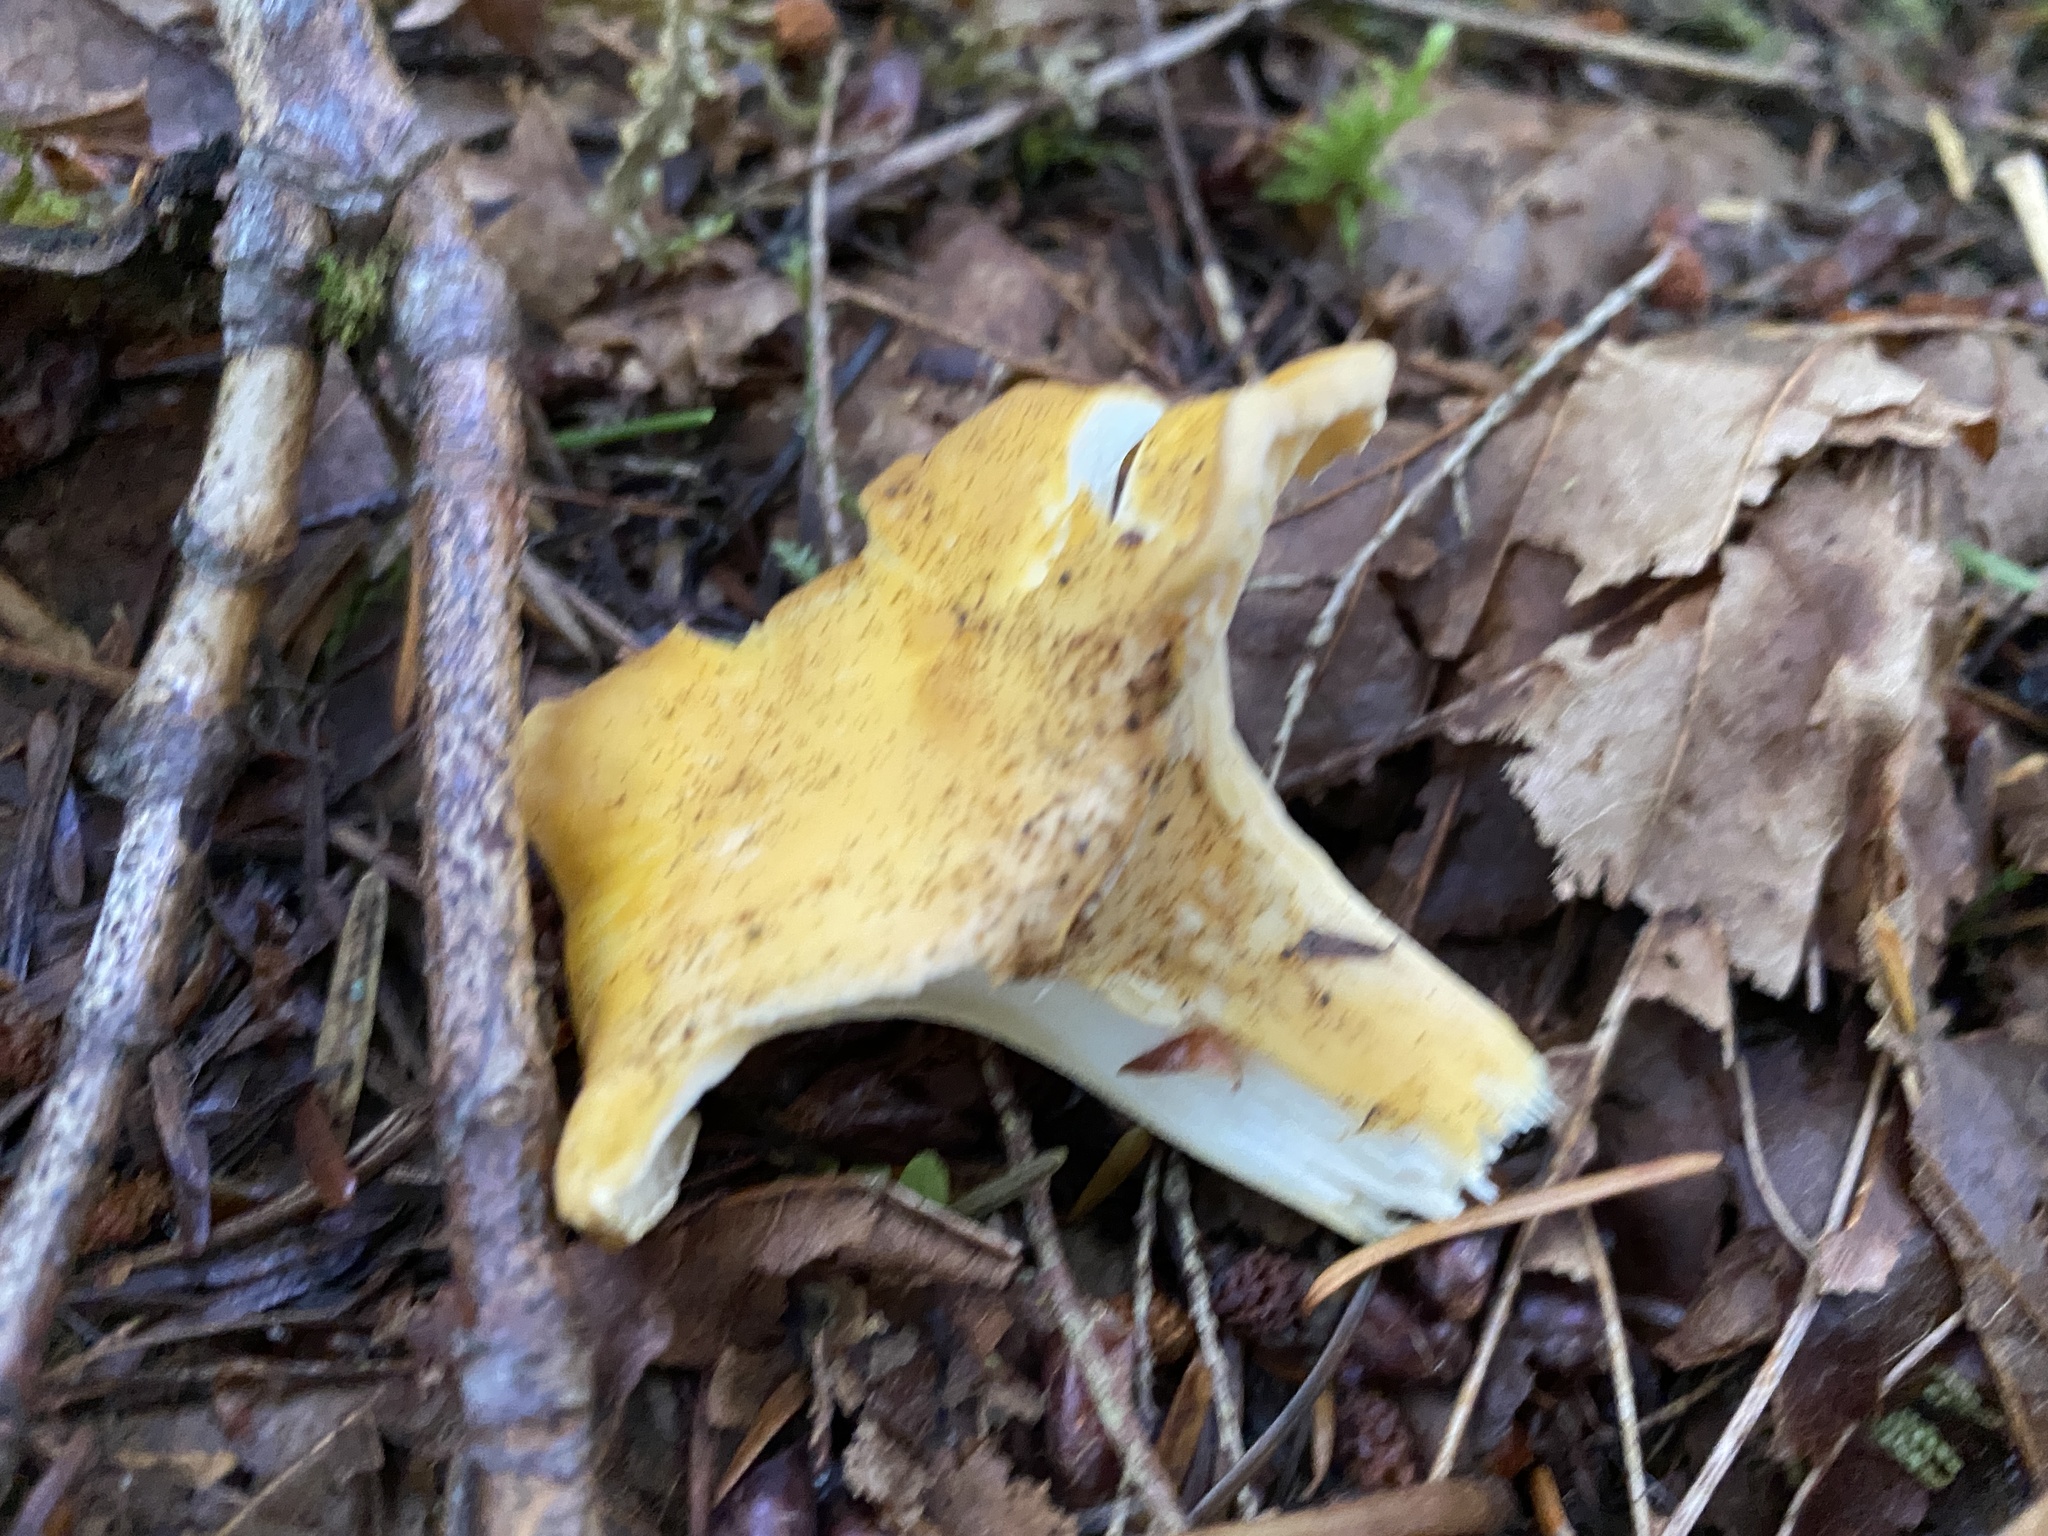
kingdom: Fungi
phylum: Basidiomycota
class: Agaricomycetes
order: Cantharellales
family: Hydnaceae
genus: Cantharellus
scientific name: Cantharellus formosus
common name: Pacific golden chanterelle
